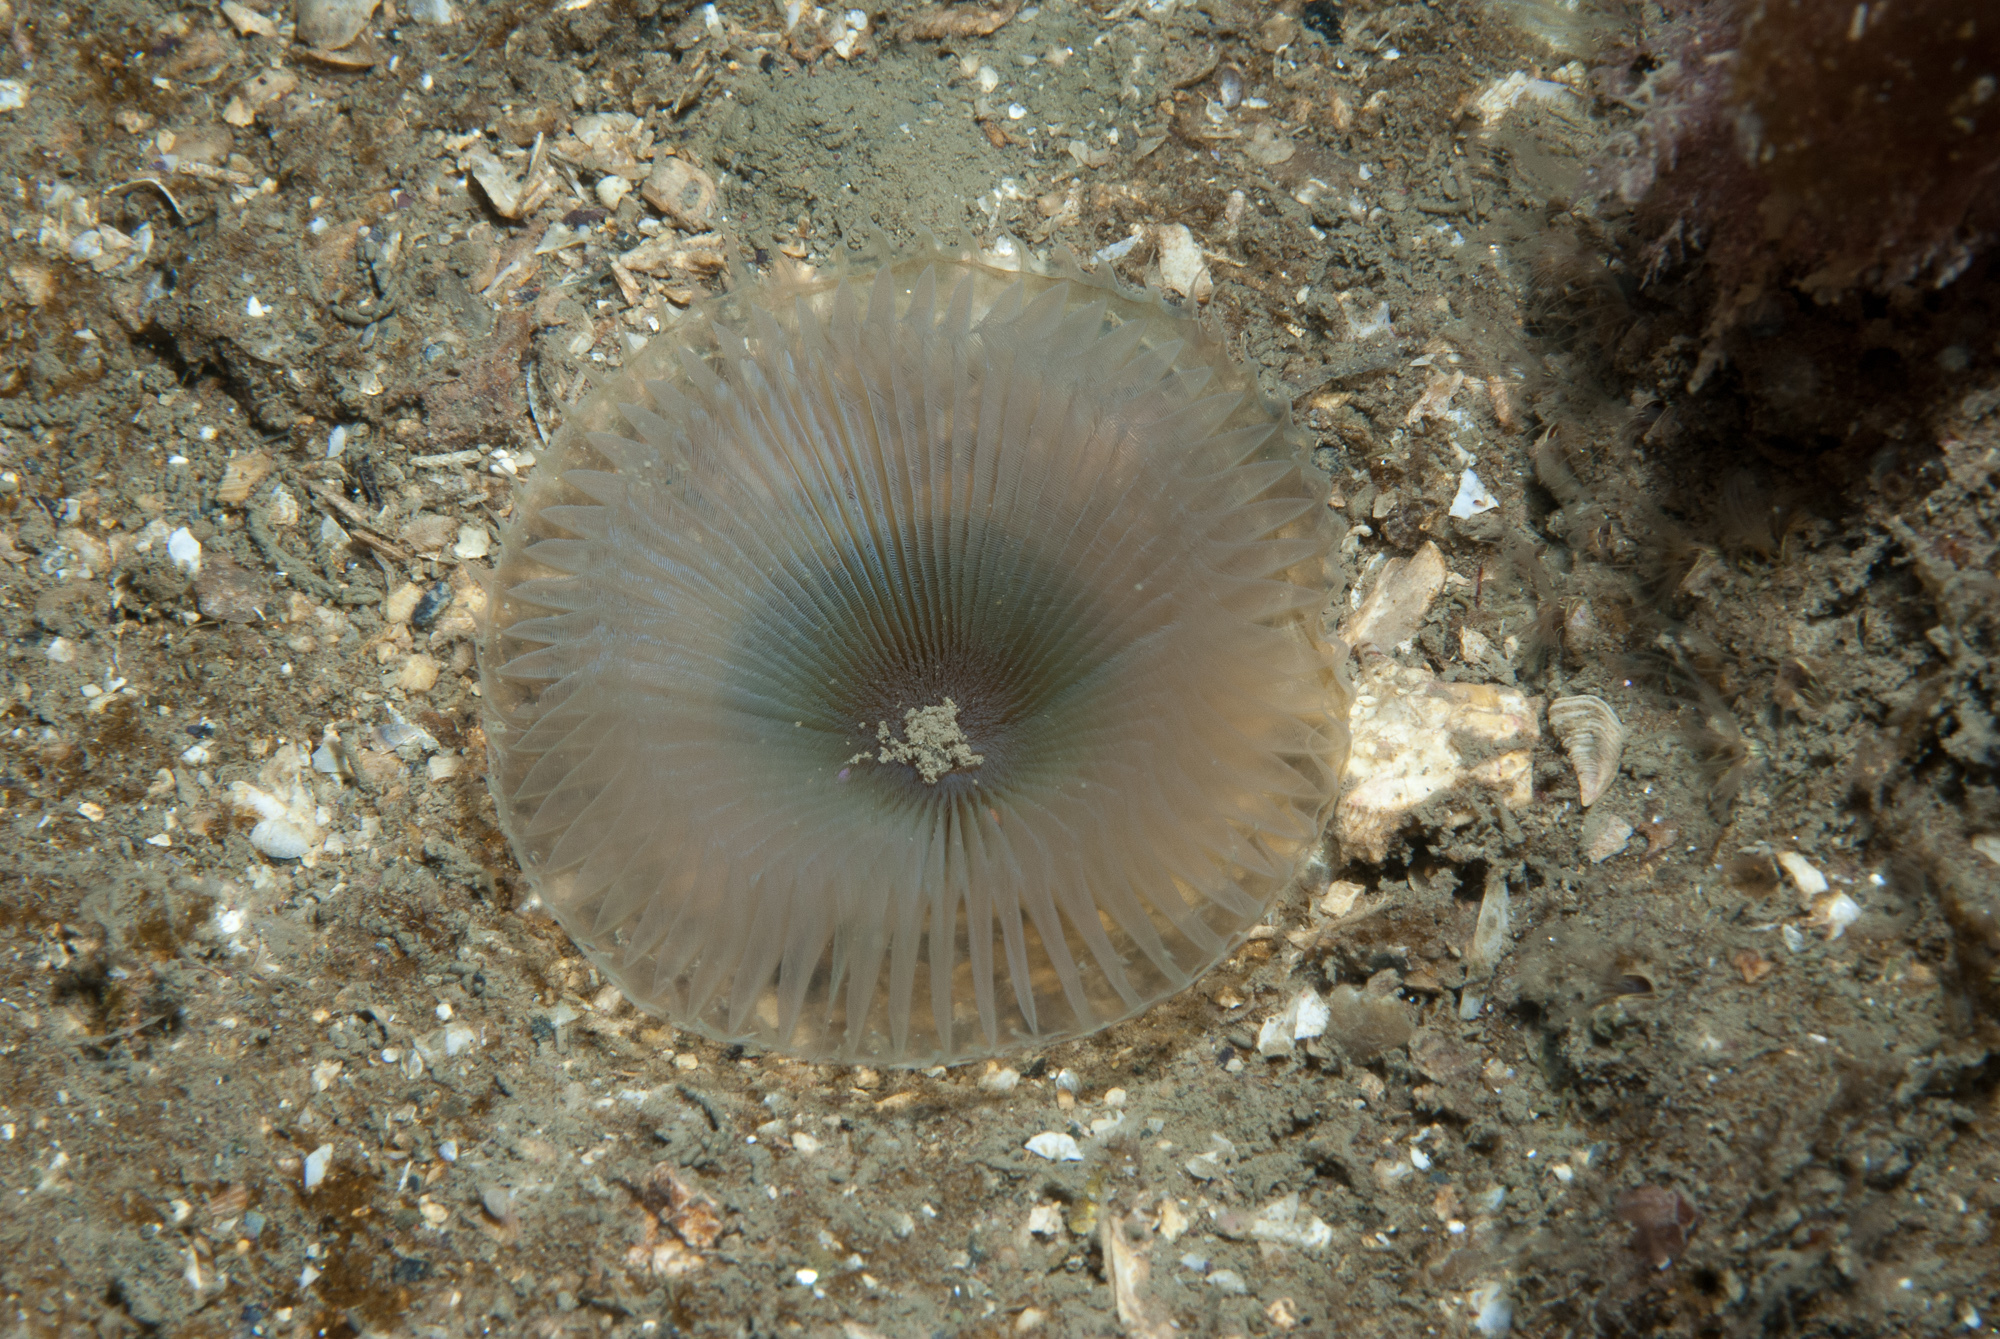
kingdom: Animalia
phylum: Annelida
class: Polychaeta
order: Sabellida
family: Sabellidae
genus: Myxicola
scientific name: Myxicola infundibulum
